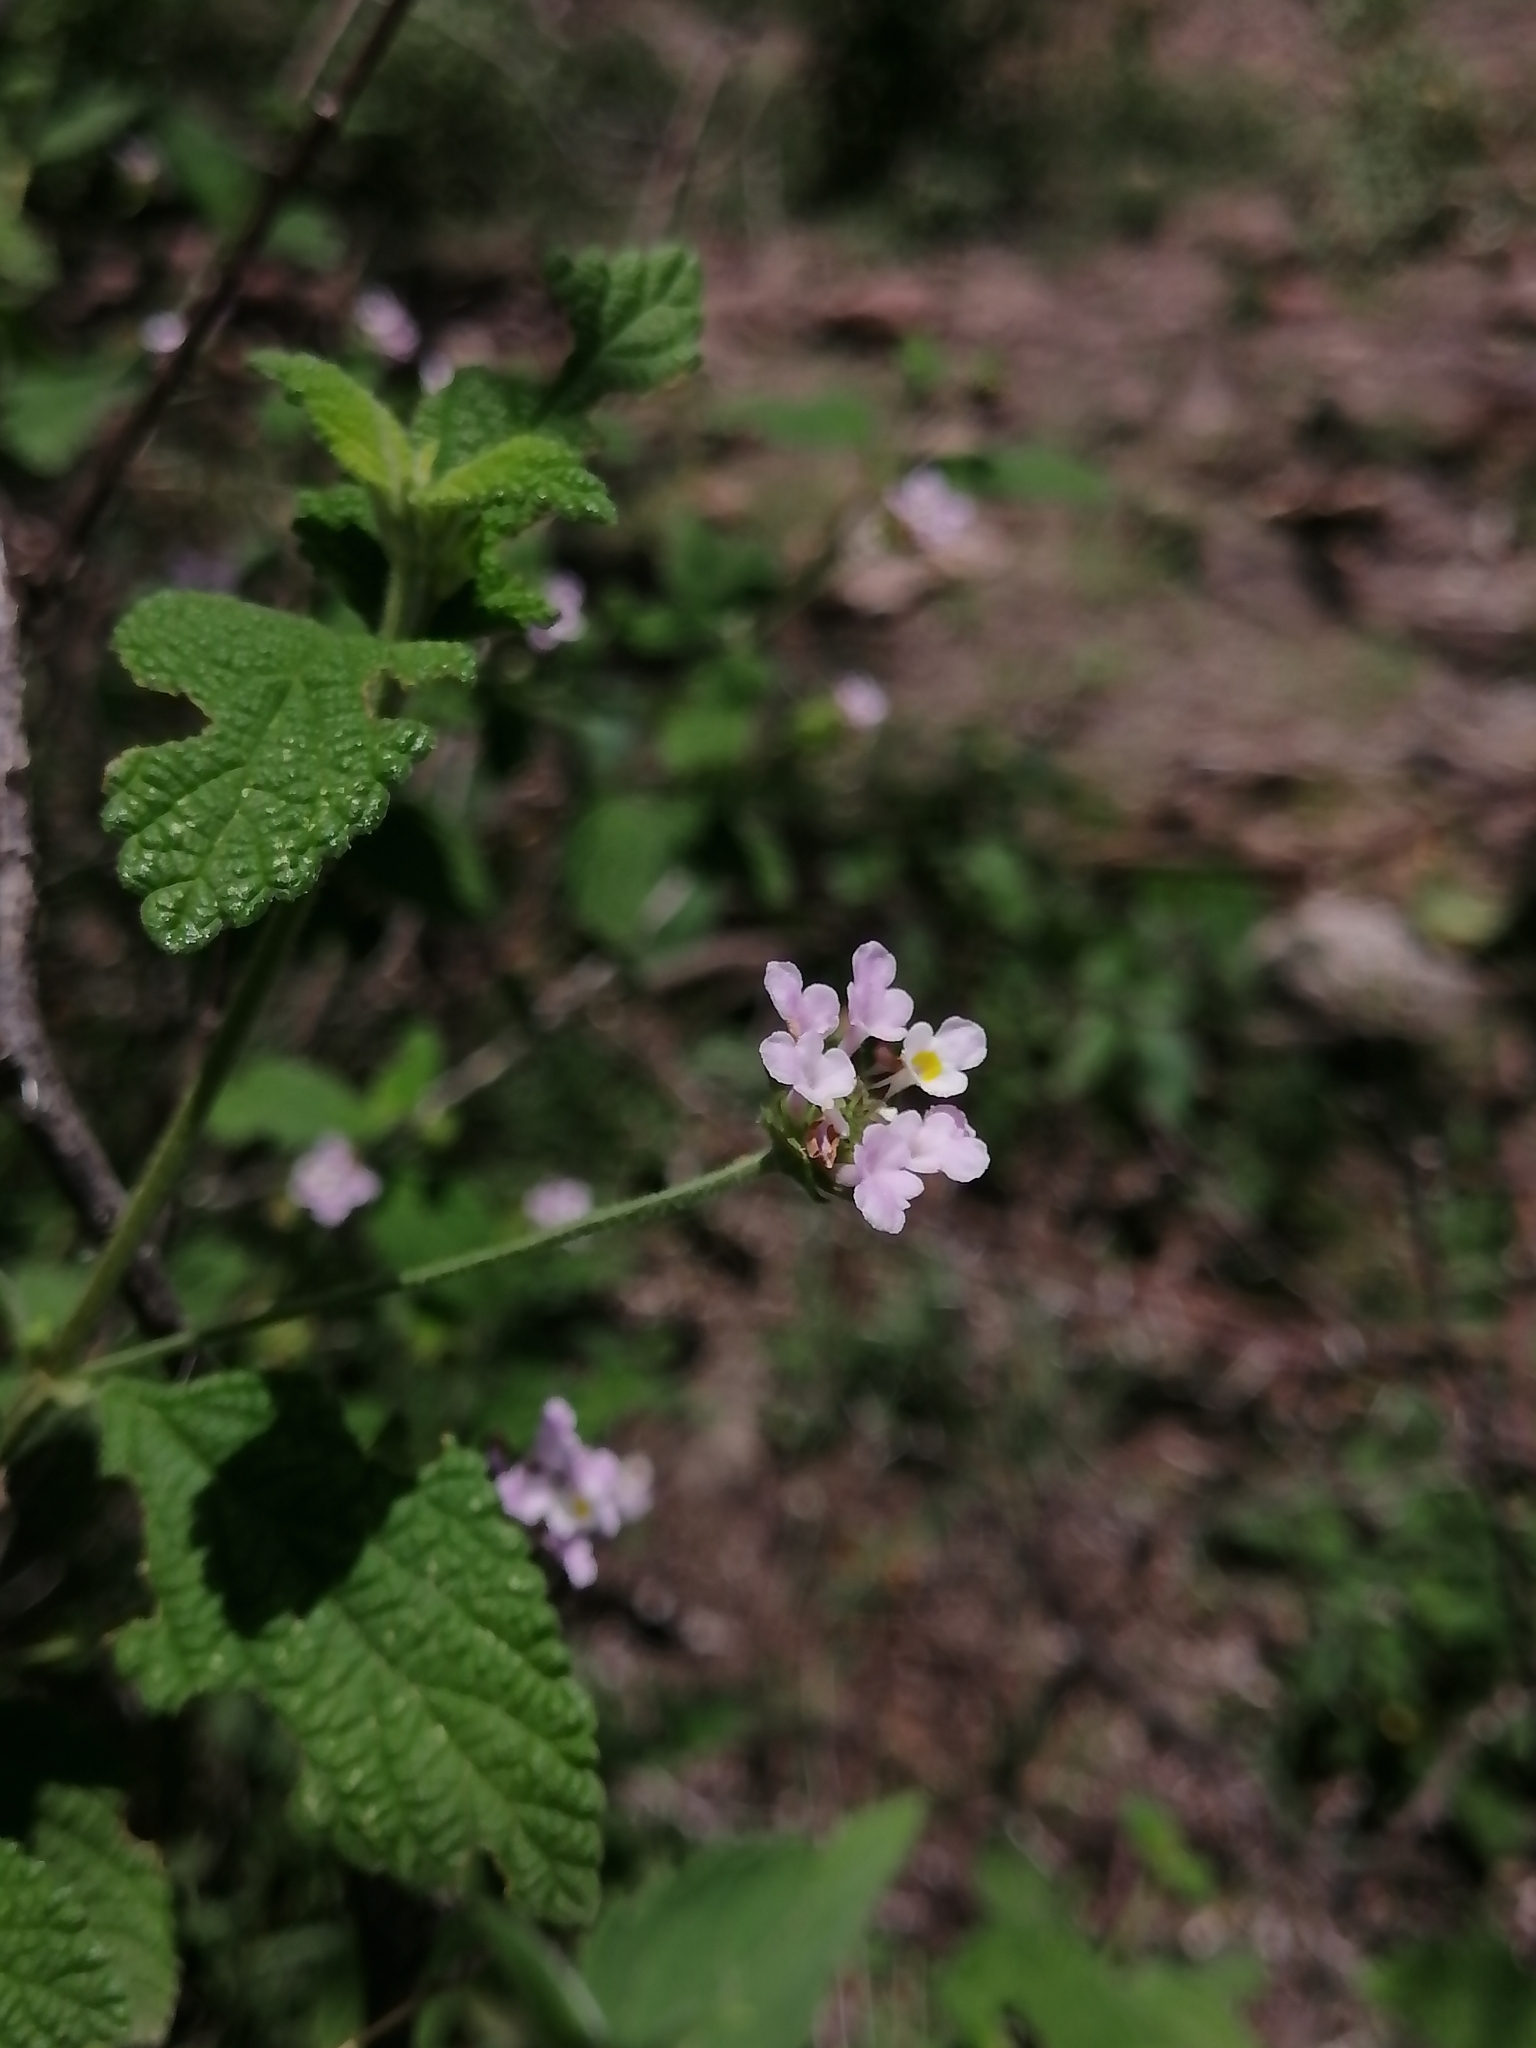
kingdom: Plantae
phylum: Tracheophyta
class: Magnoliopsida
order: Lamiales
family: Verbenaceae
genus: Lantana
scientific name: Lantana velutina
